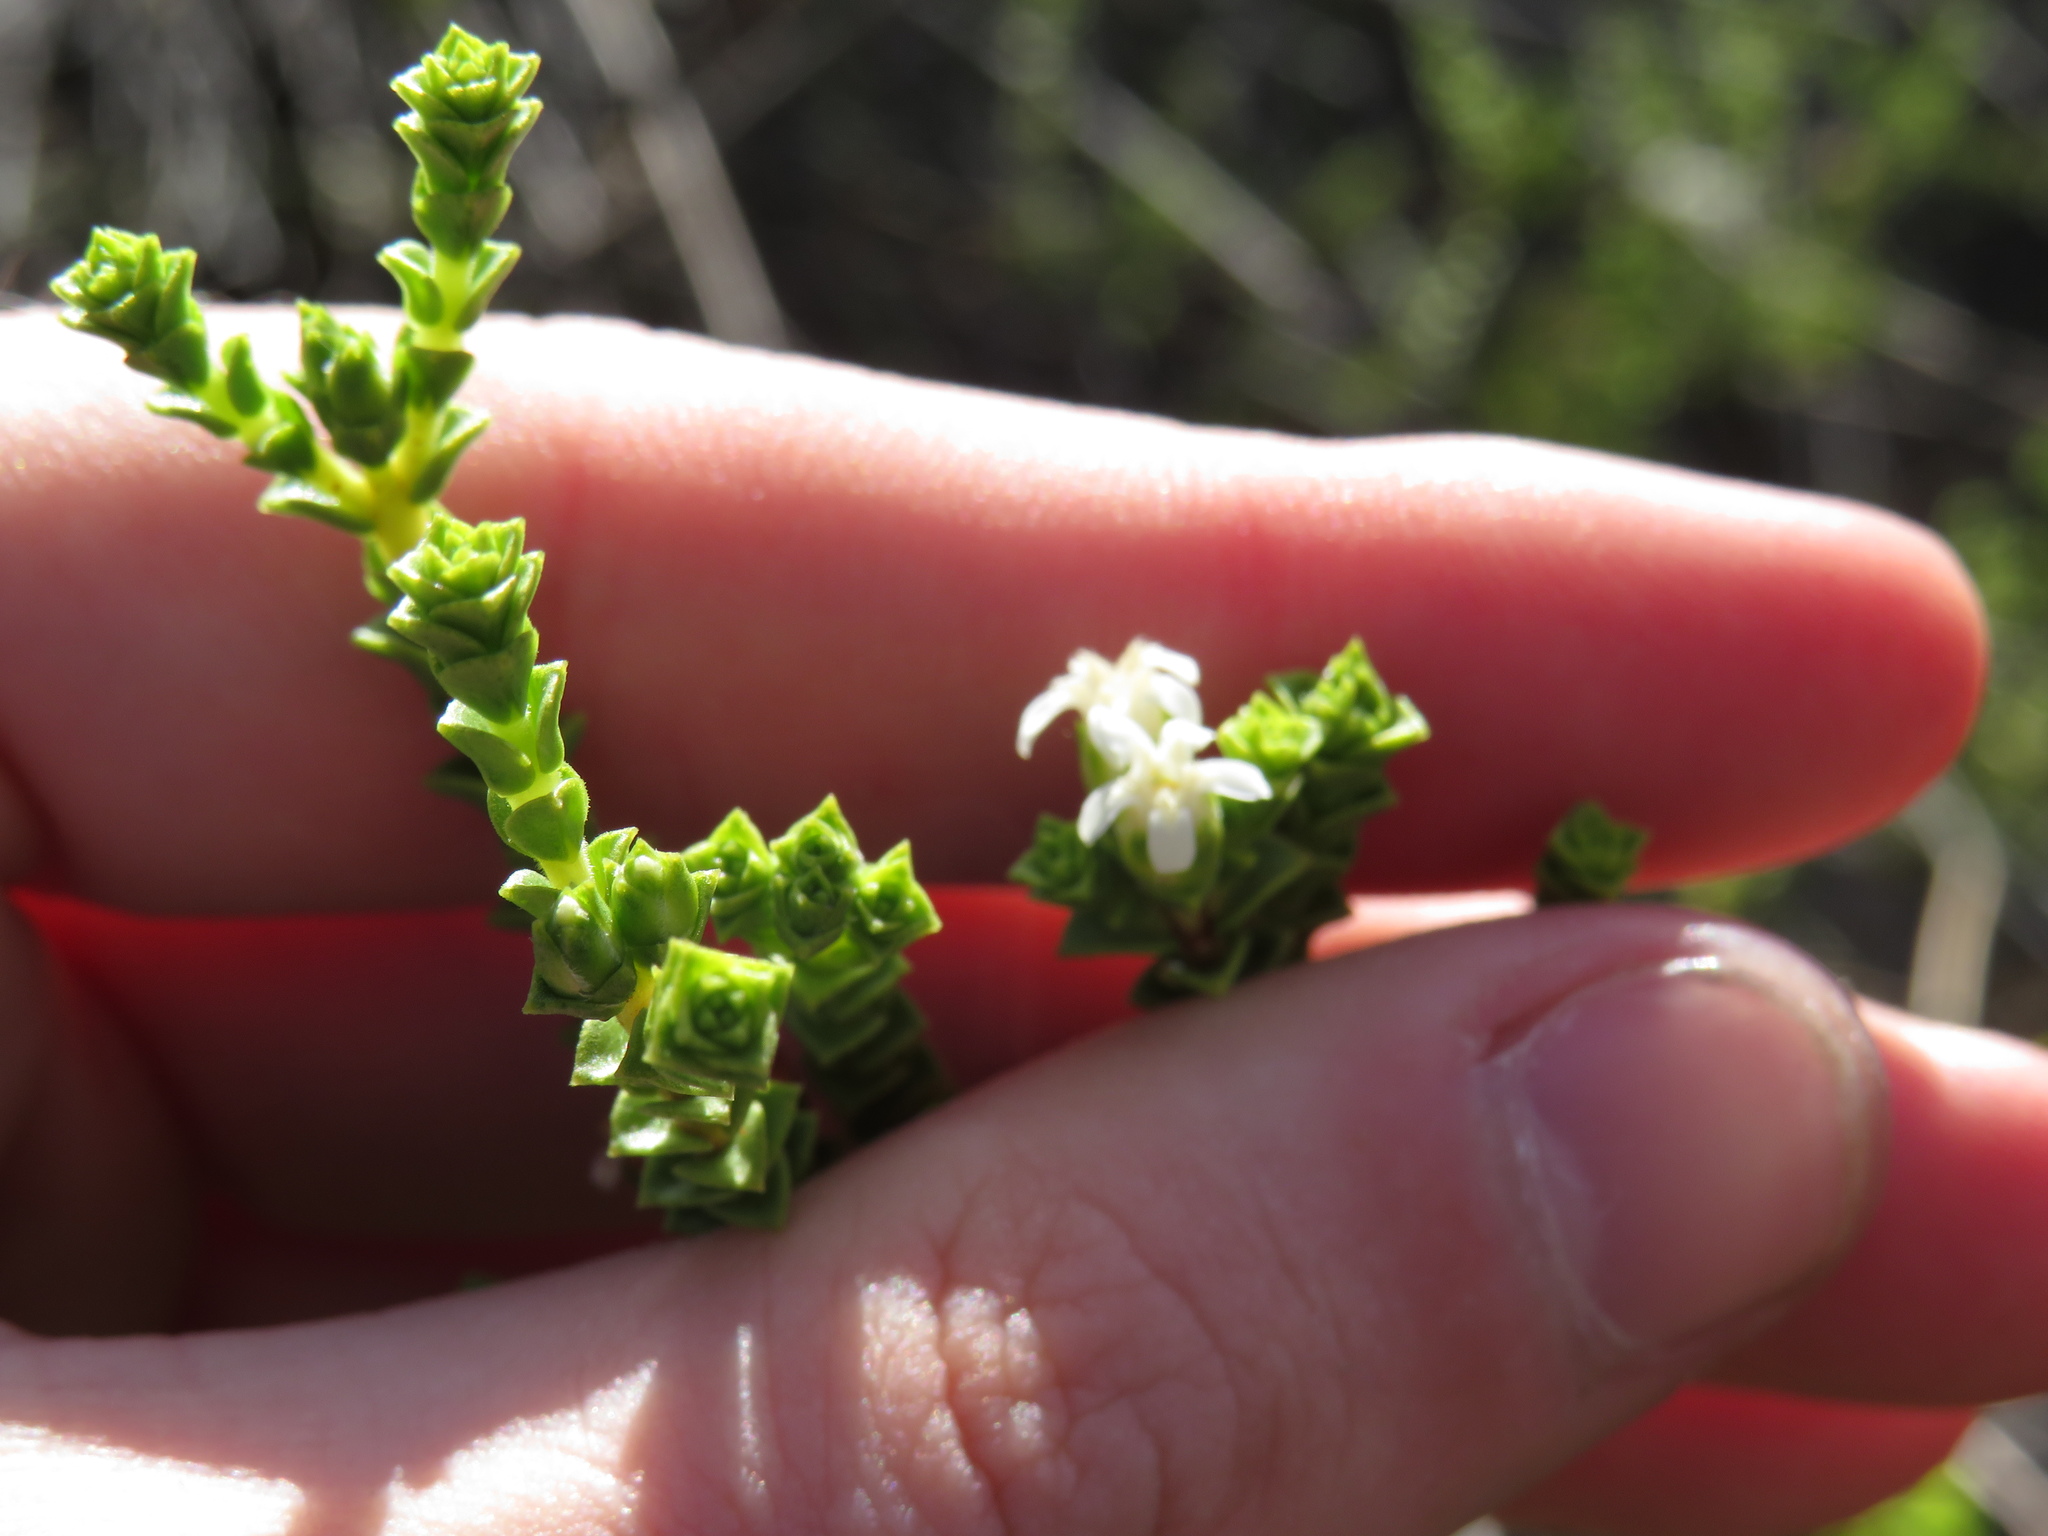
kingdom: Plantae
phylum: Tracheophyta
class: Magnoliopsida
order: Sapindales
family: Rutaceae
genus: Euchaetis
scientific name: Euchaetis pungens
